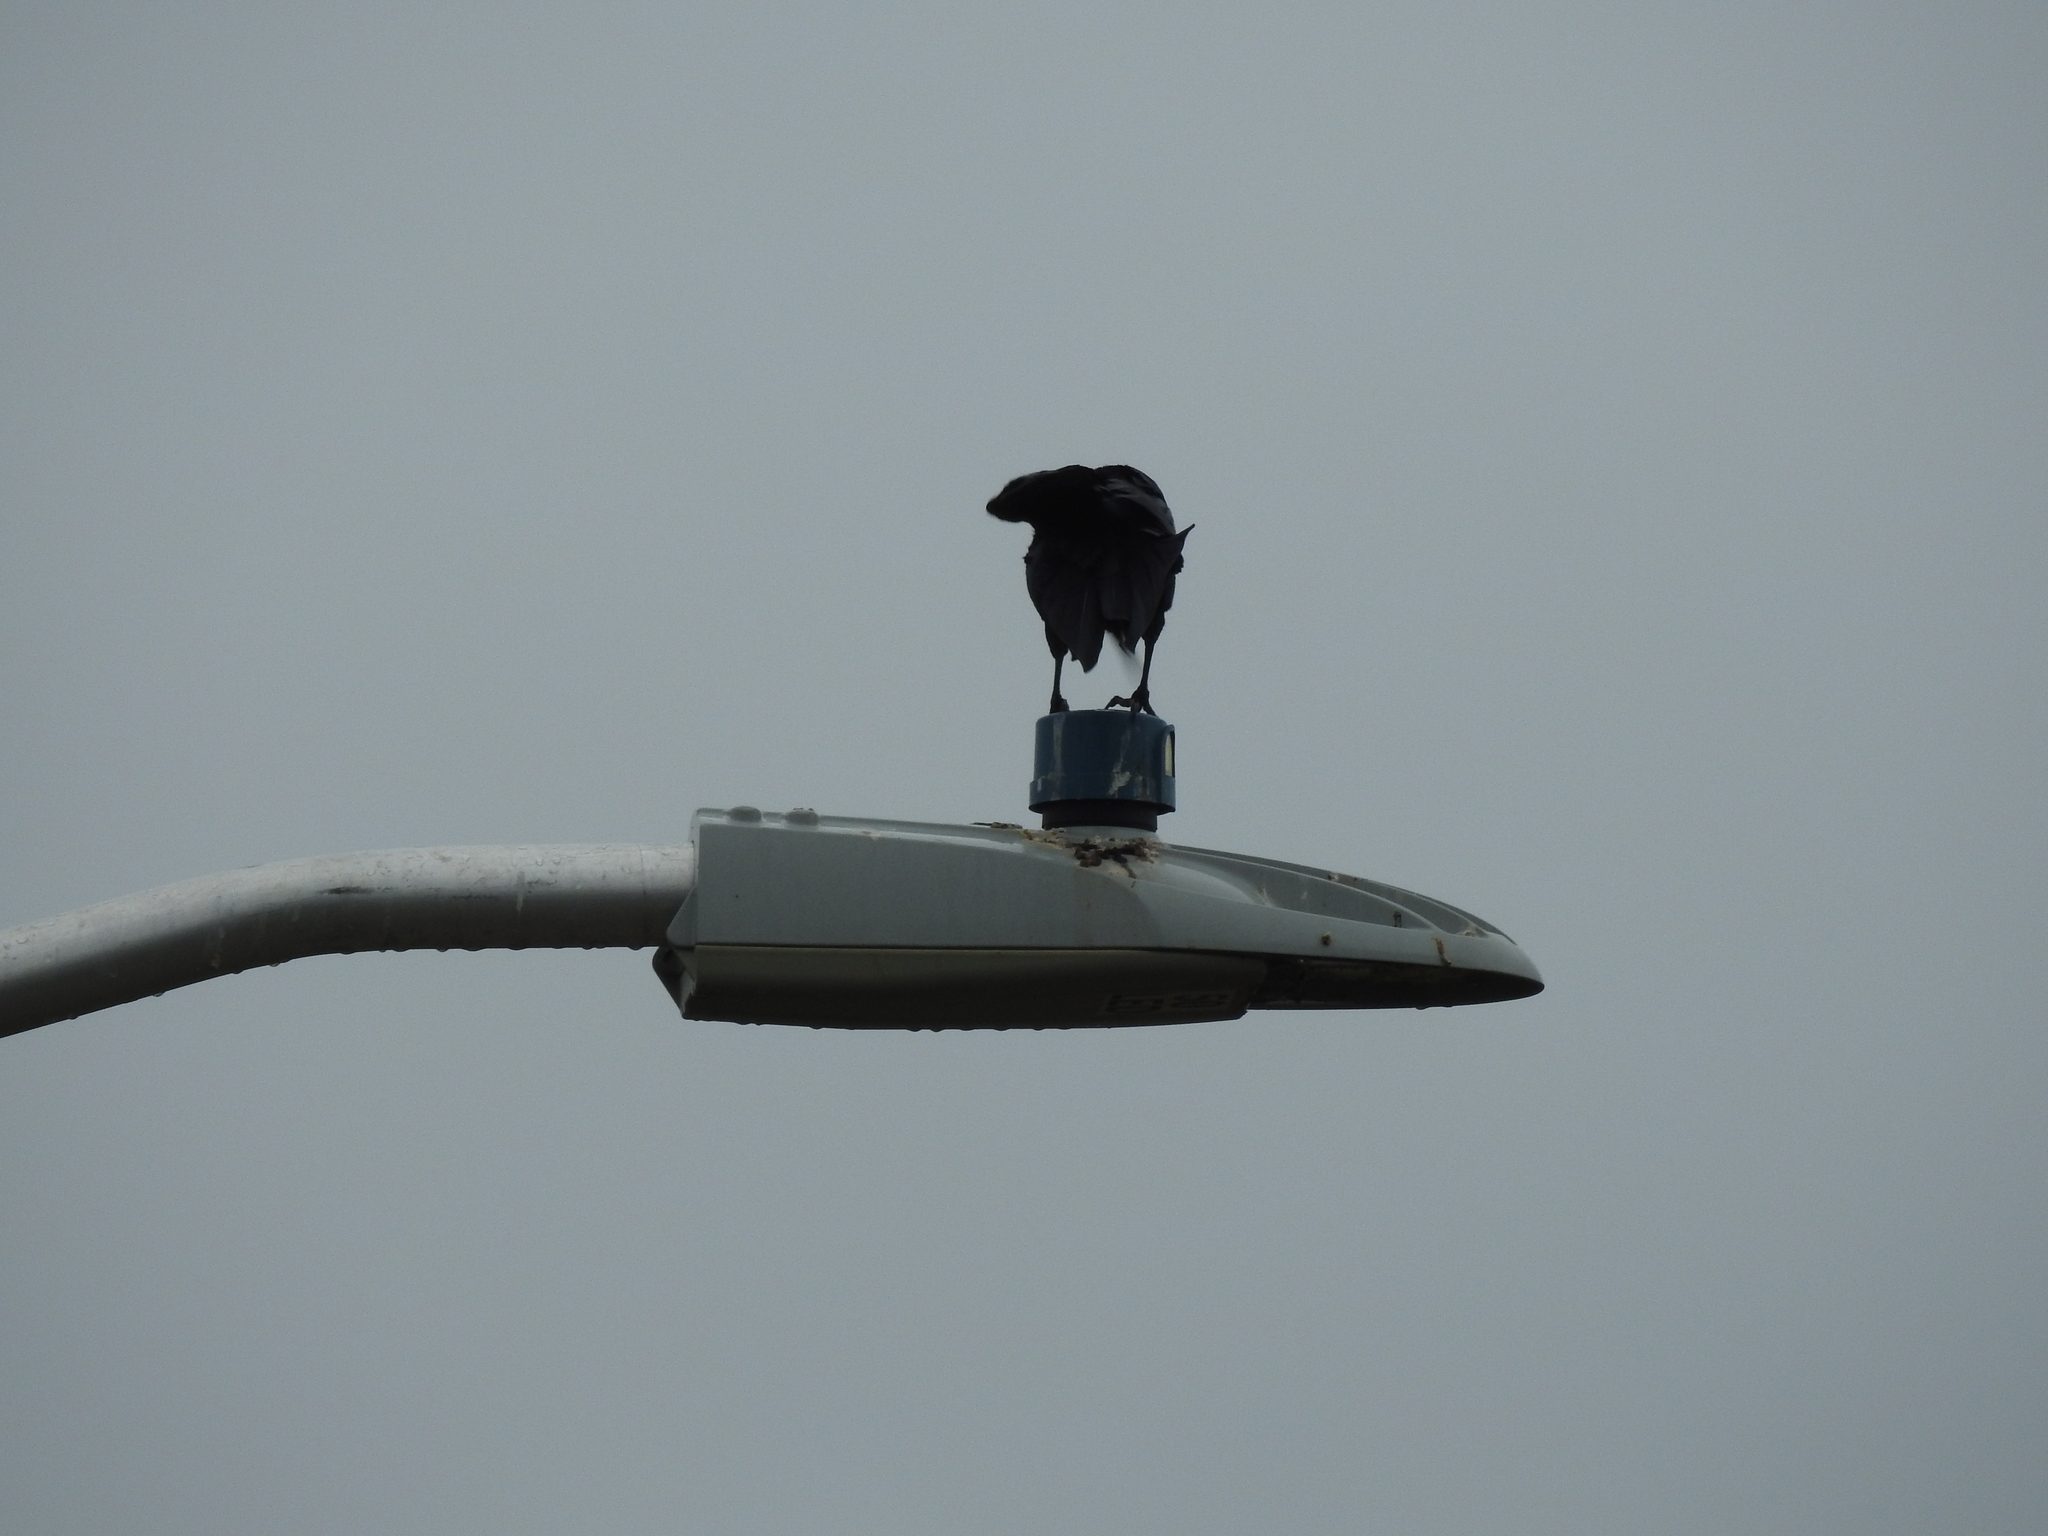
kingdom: Animalia
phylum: Chordata
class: Aves
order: Passeriformes
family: Icteridae
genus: Quiscalus
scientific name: Quiscalus major
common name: Boat-tailed grackle
